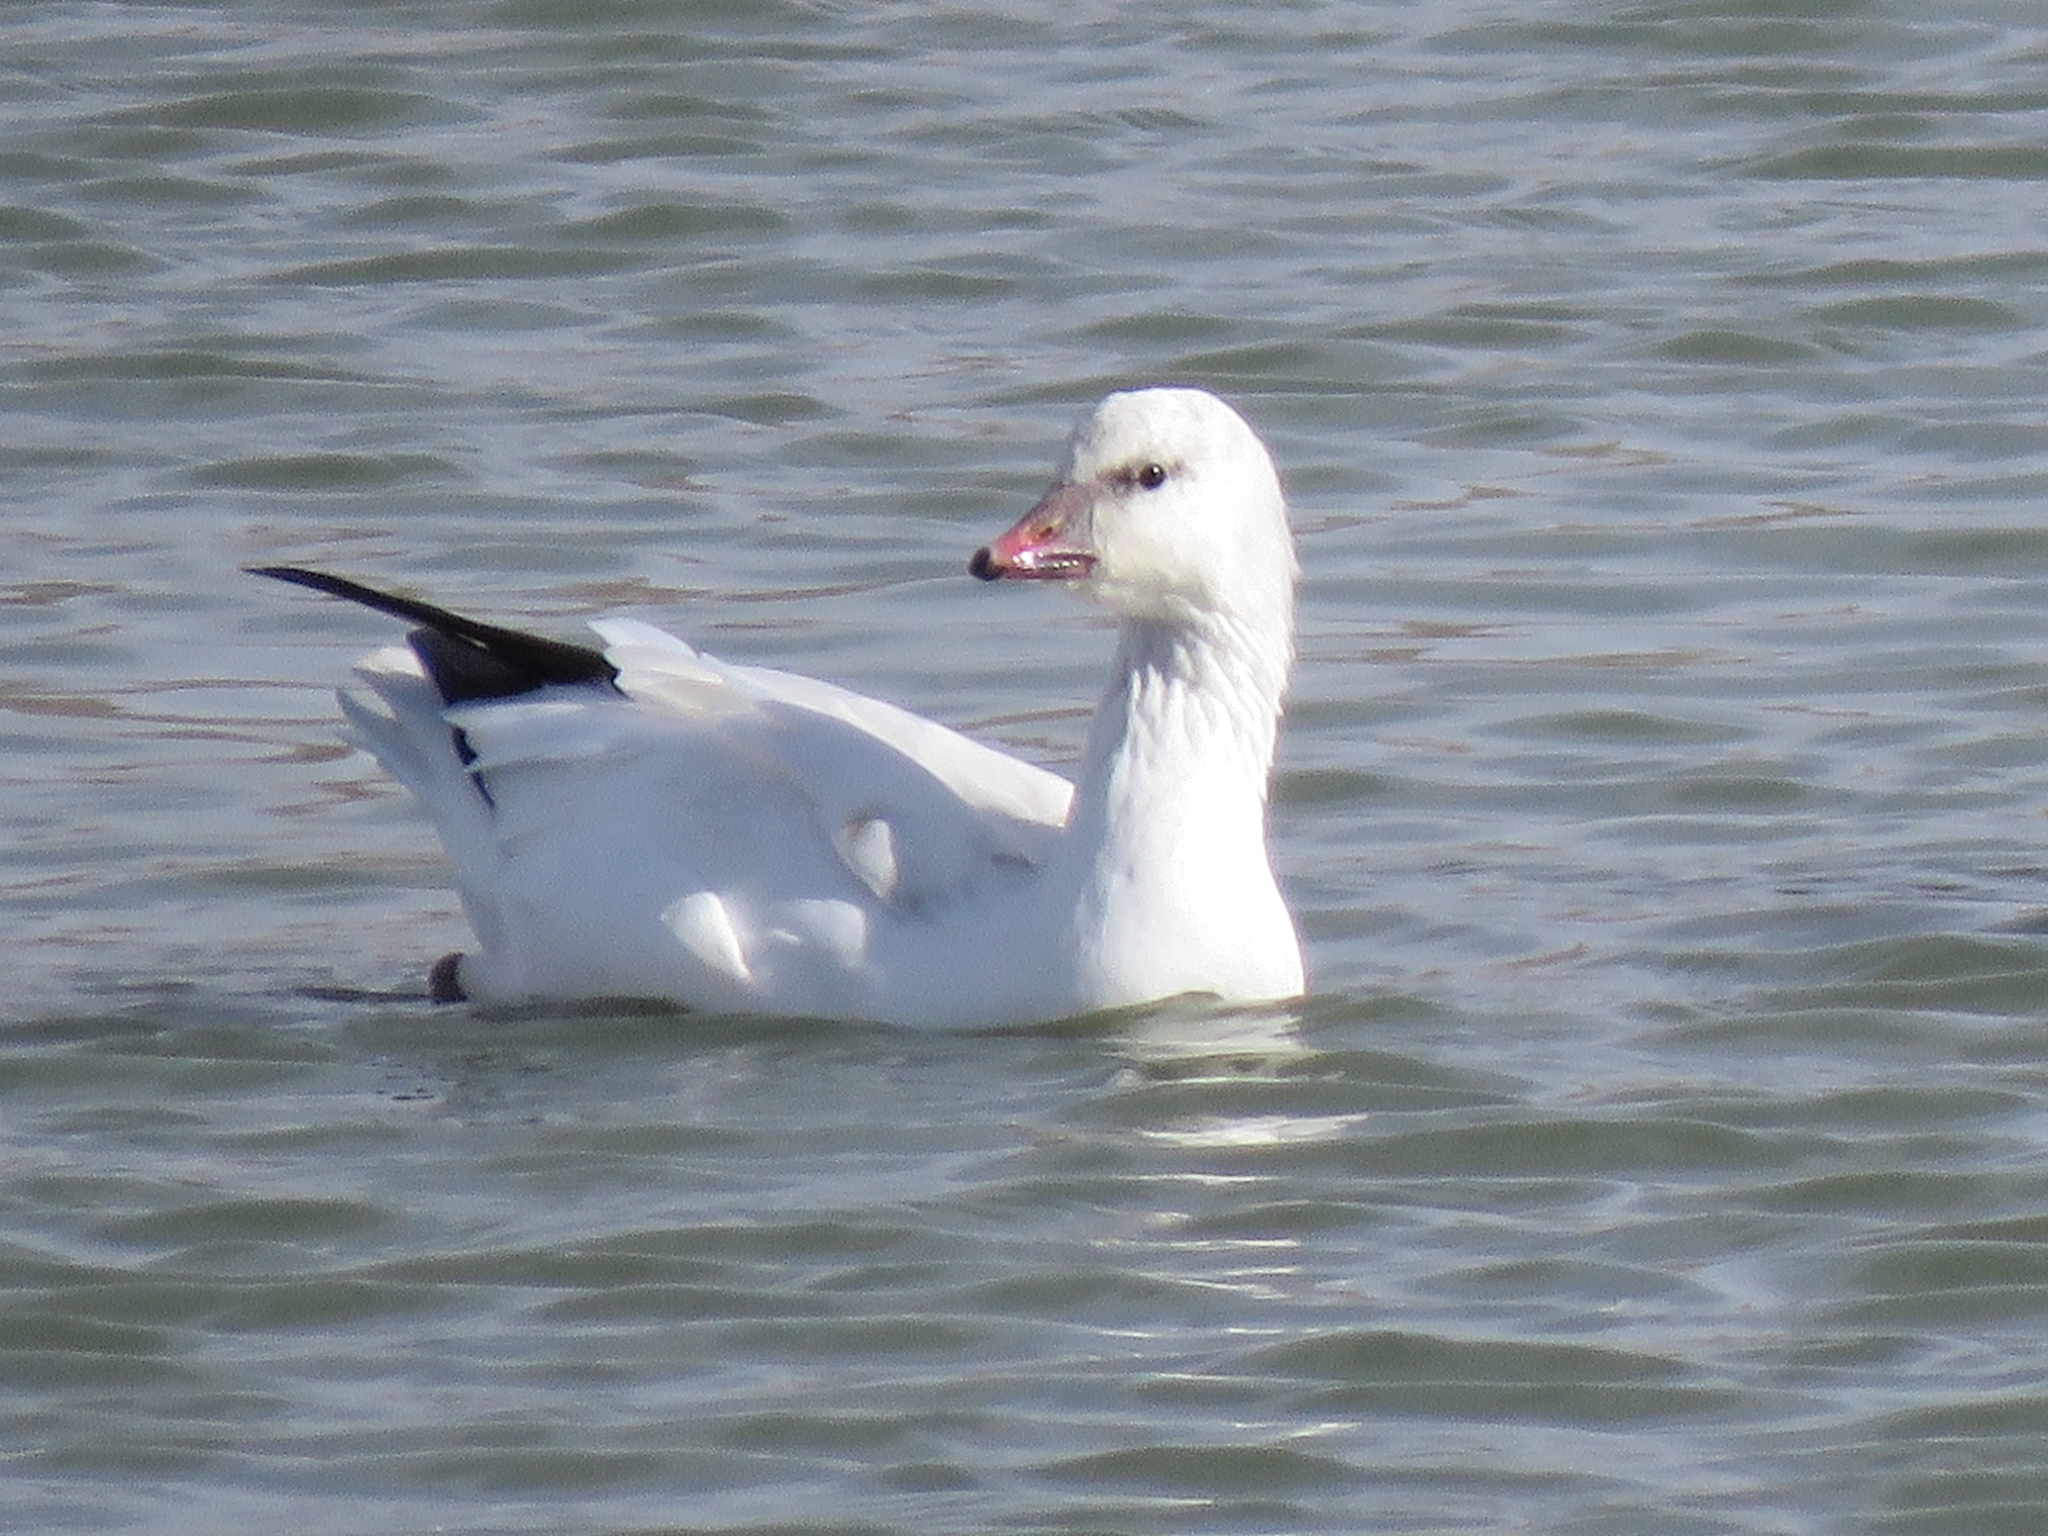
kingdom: Animalia
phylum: Chordata
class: Aves
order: Anseriformes
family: Anatidae
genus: Anser
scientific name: Anser rossii
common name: Ross's goose
